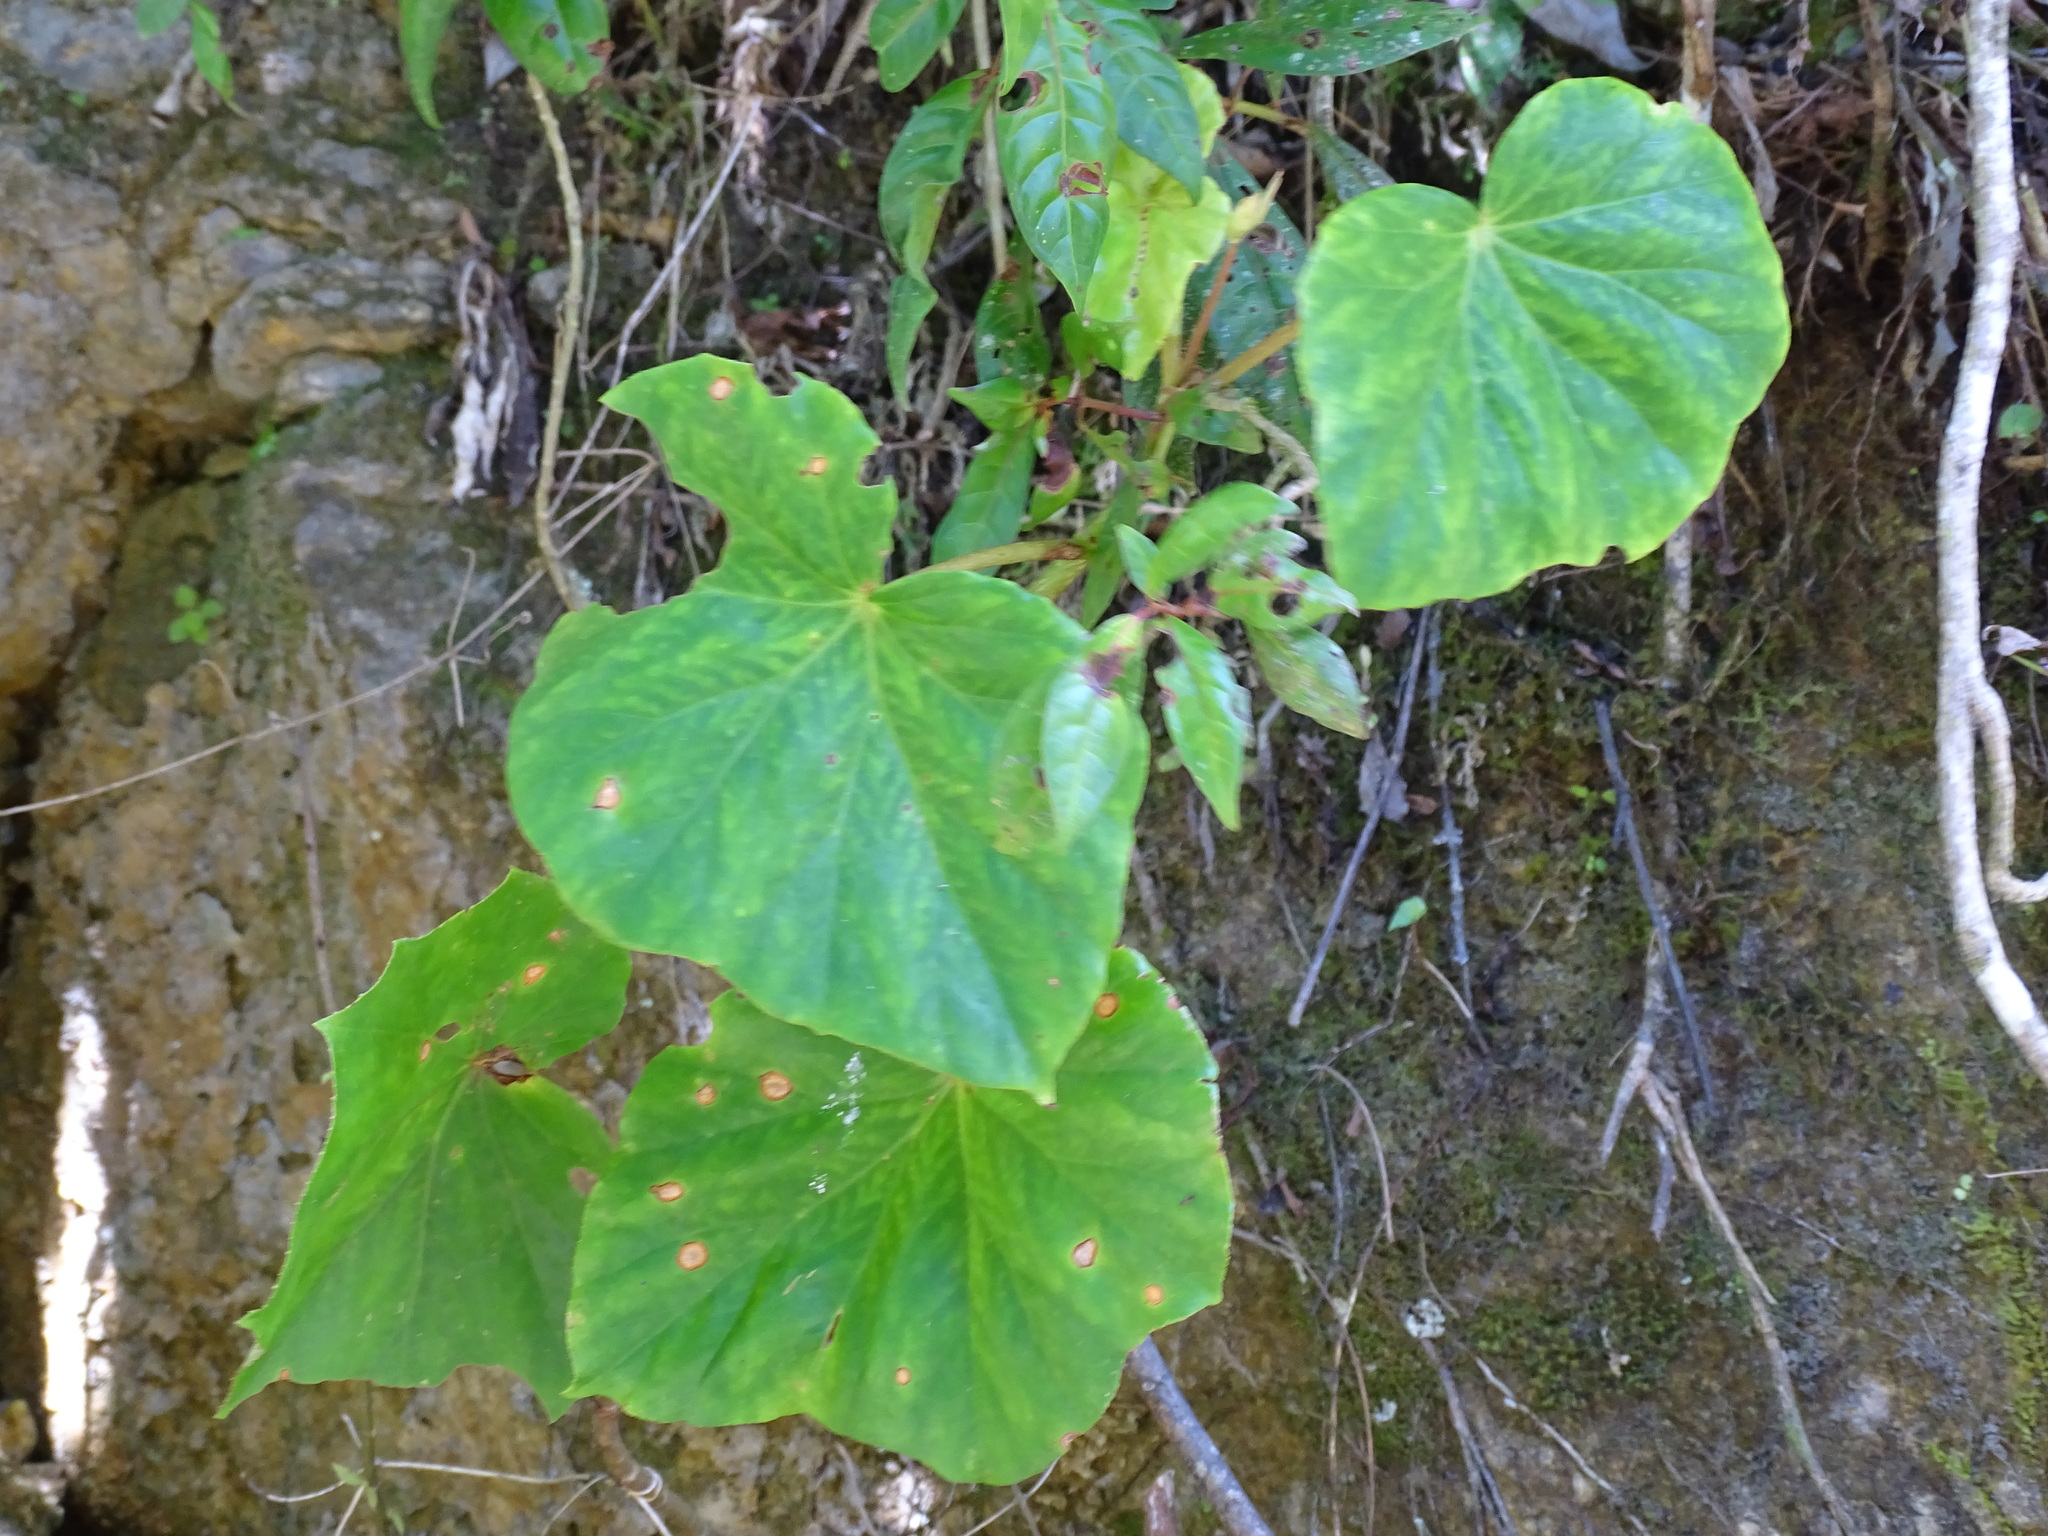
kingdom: Plantae
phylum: Tracheophyta
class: Magnoliopsida
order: Cucurbitales
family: Begoniaceae
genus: Begonia
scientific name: Begonia sartorii
